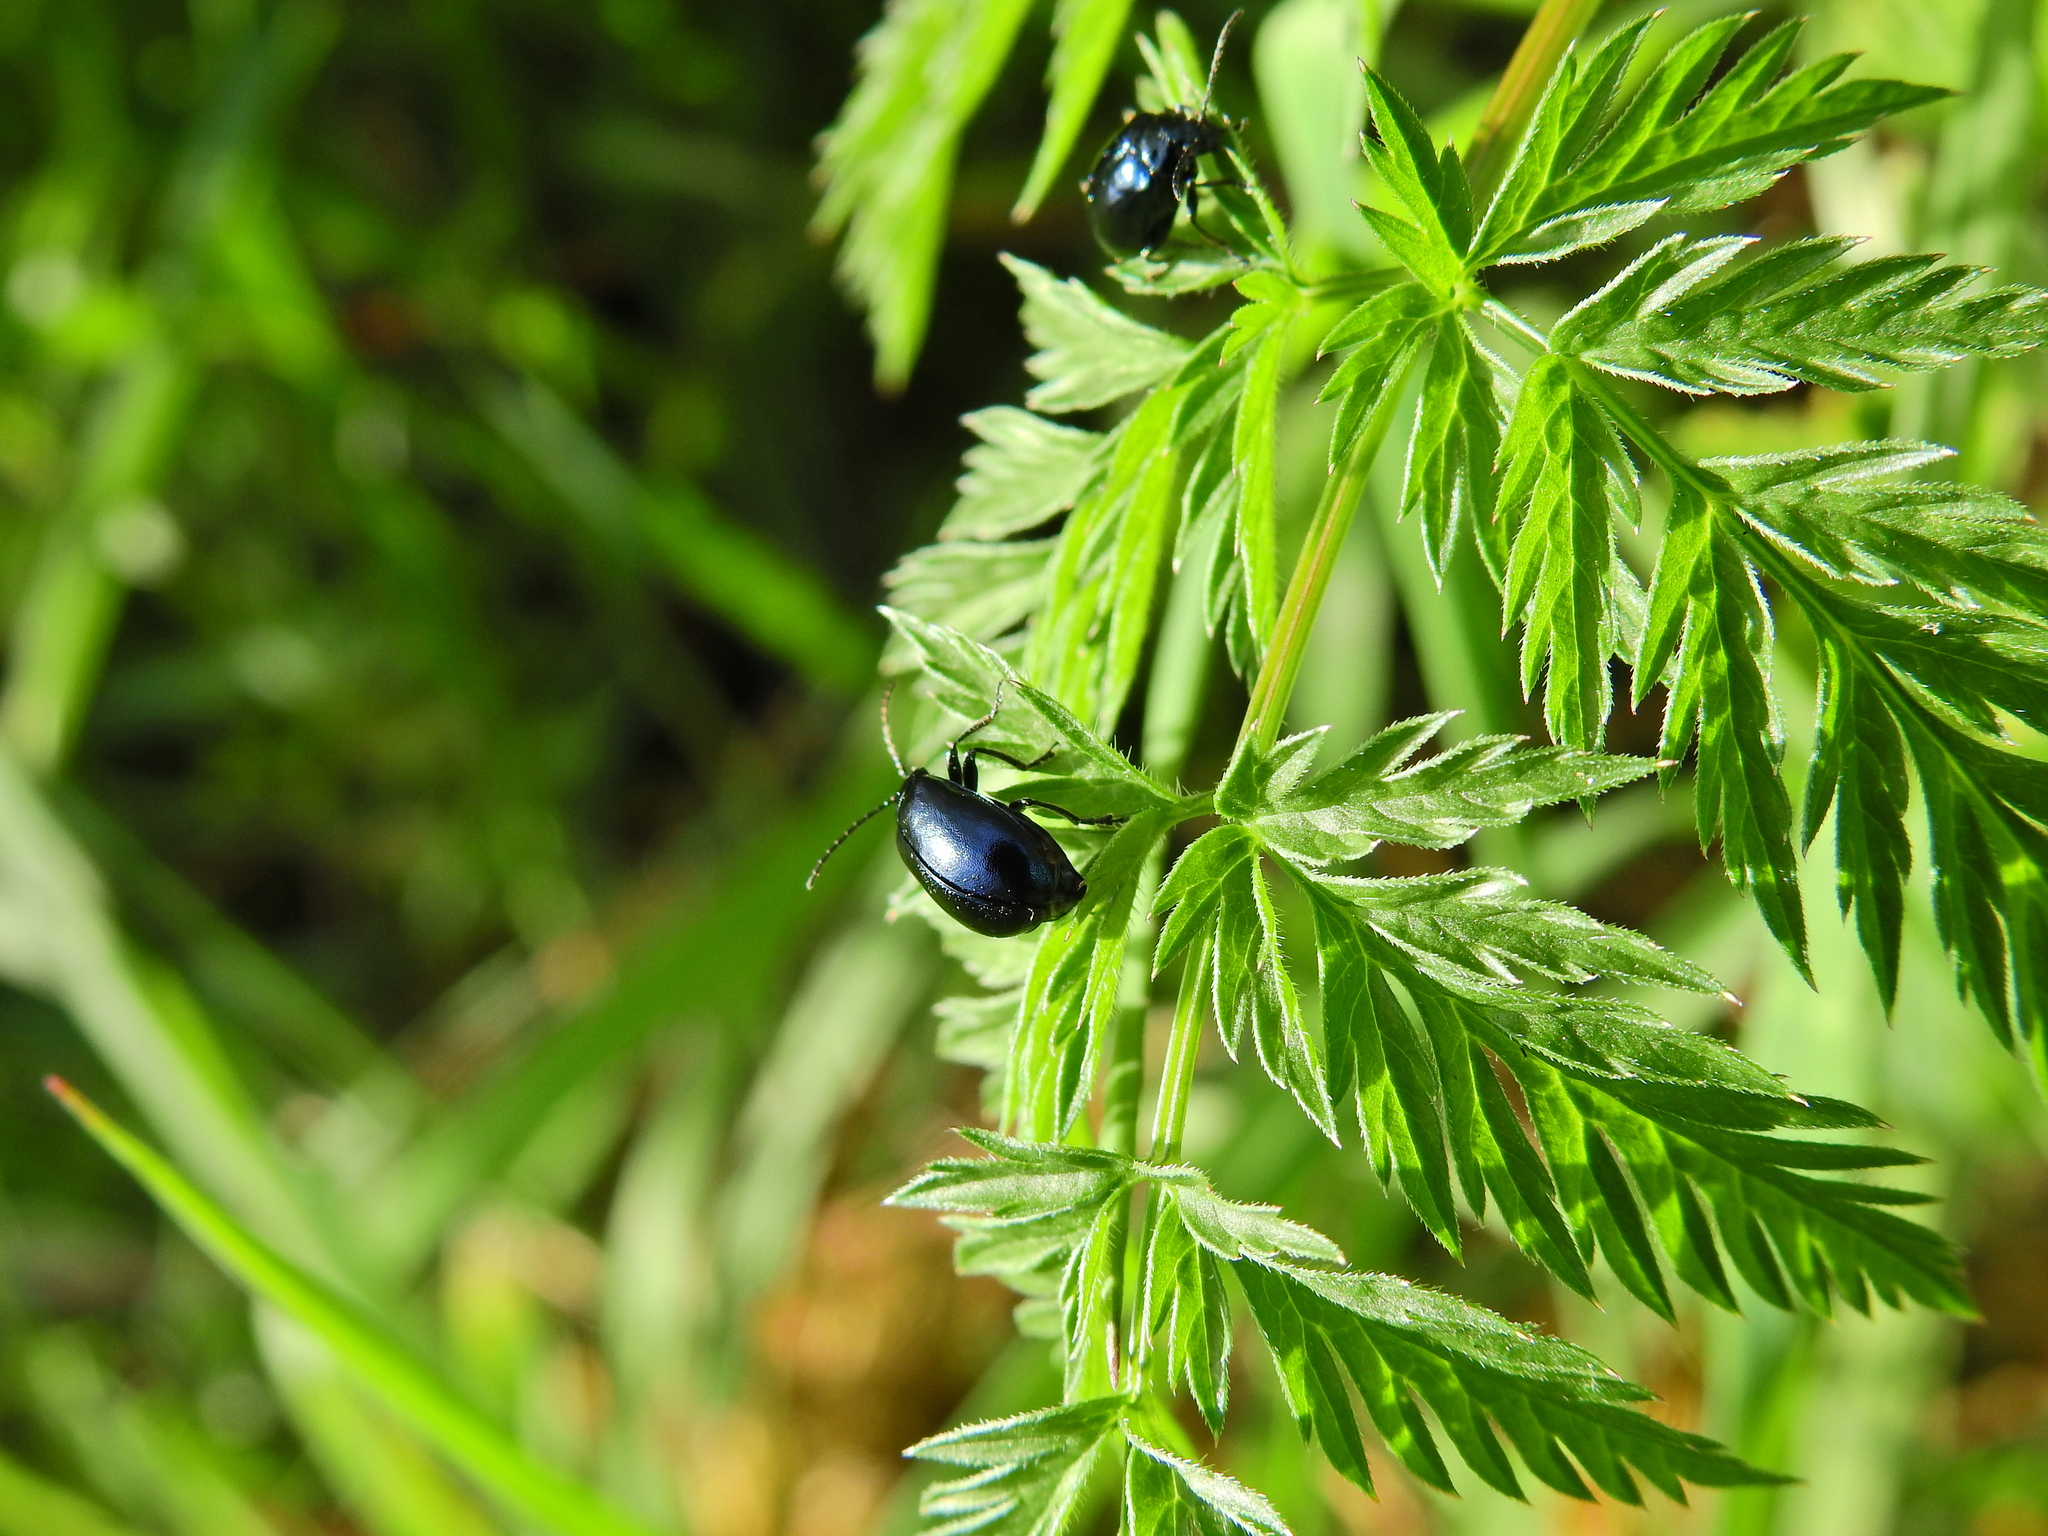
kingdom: Animalia
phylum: Arthropoda
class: Insecta
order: Coleoptera
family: Chrysomelidae
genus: Agelastica
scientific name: Agelastica alni
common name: Alder leaf beetle
